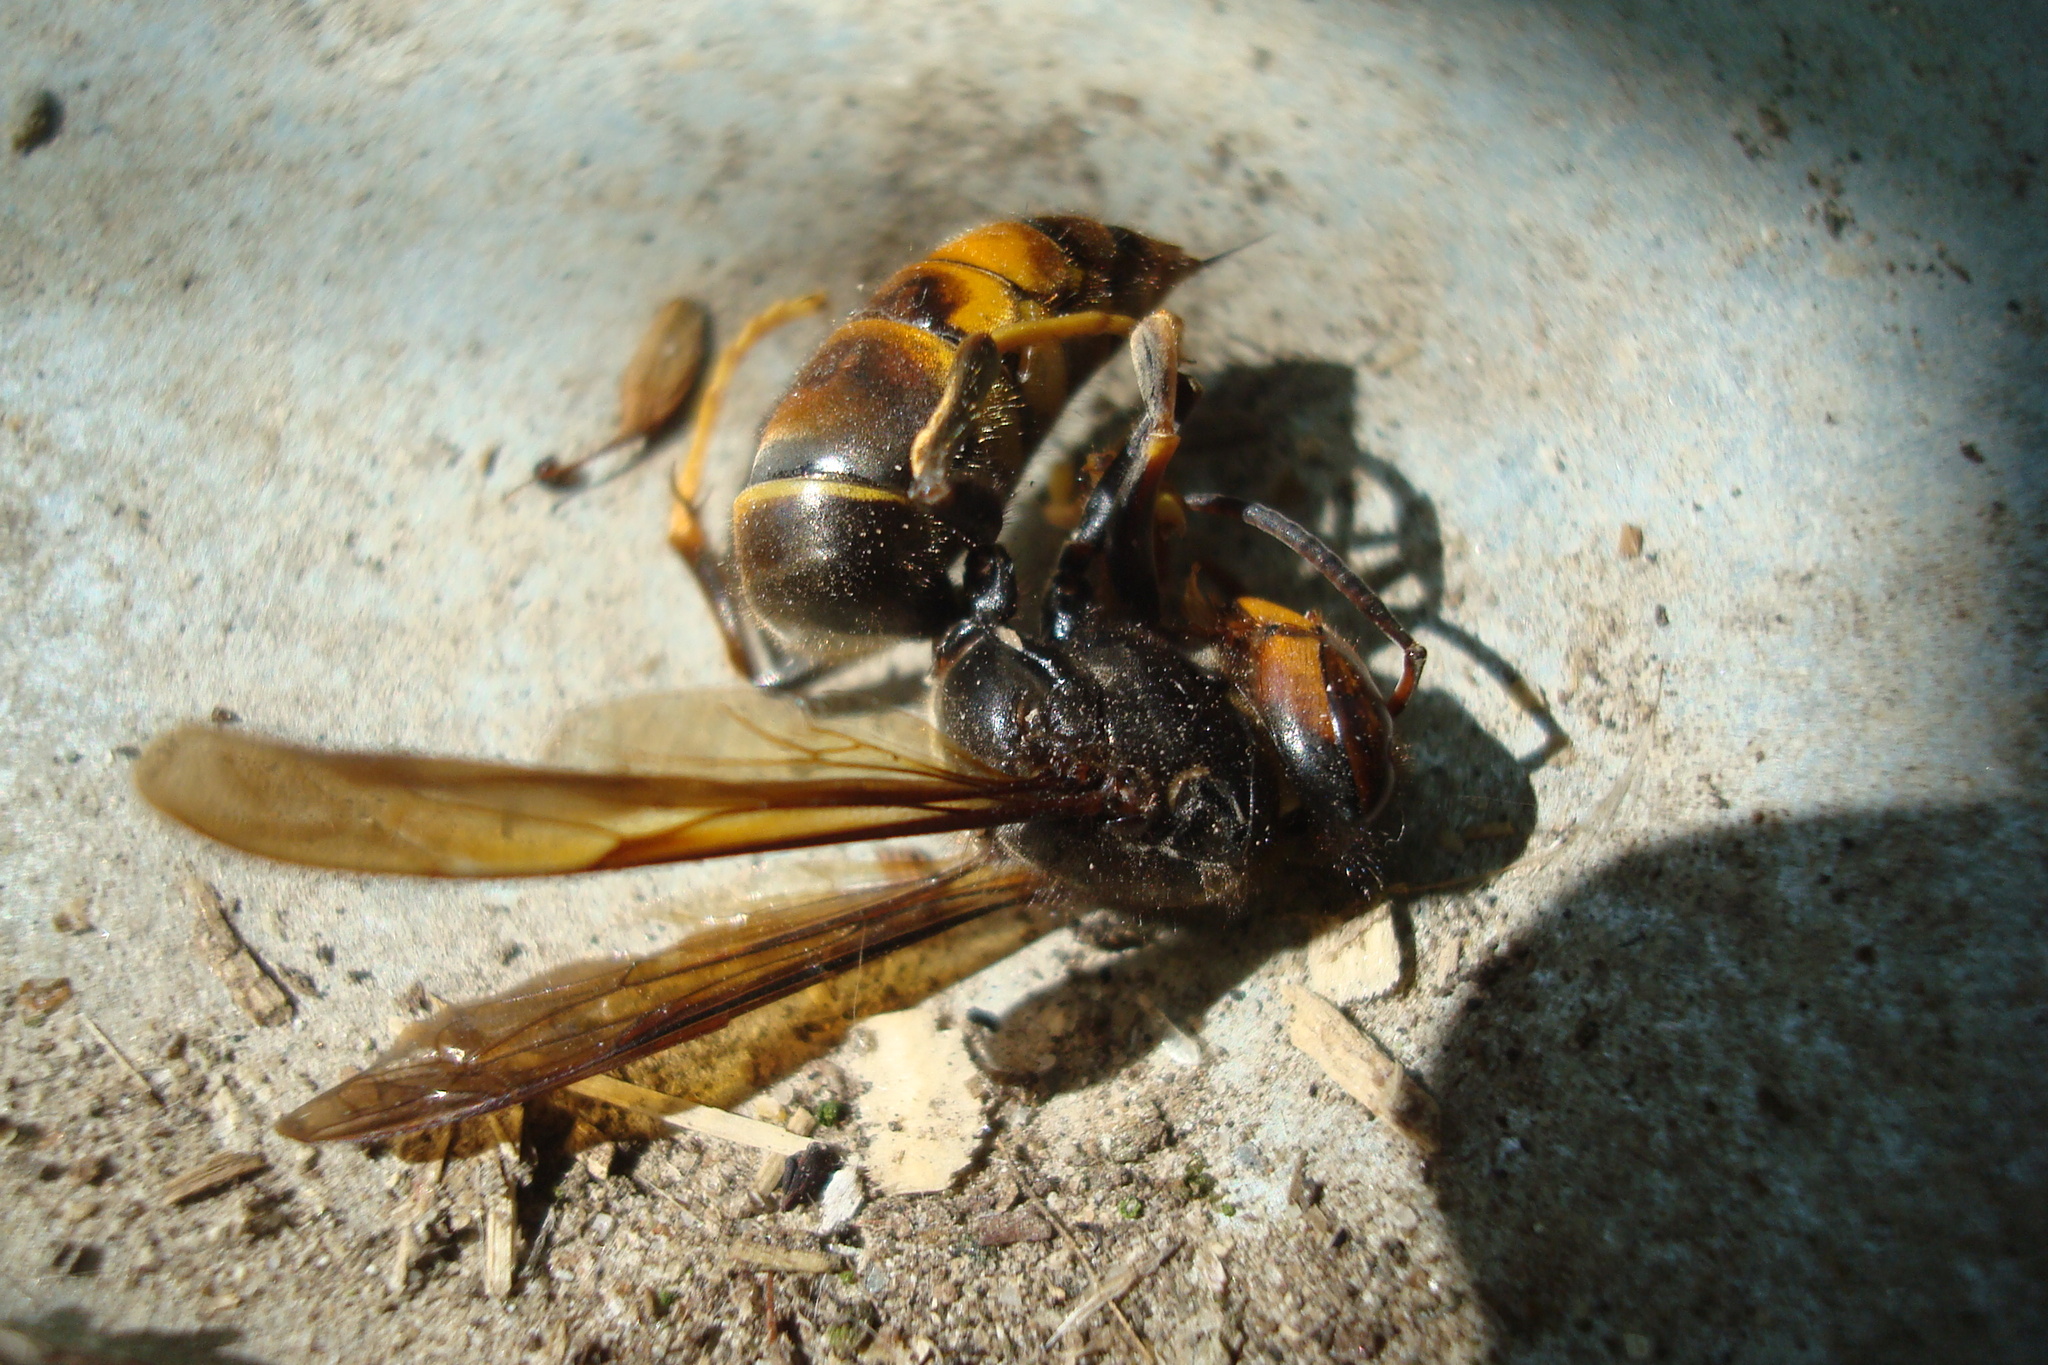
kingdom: Animalia
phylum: Arthropoda
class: Insecta
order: Hymenoptera
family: Vespidae
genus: Vespa
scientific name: Vespa velutina
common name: Asian hornet
